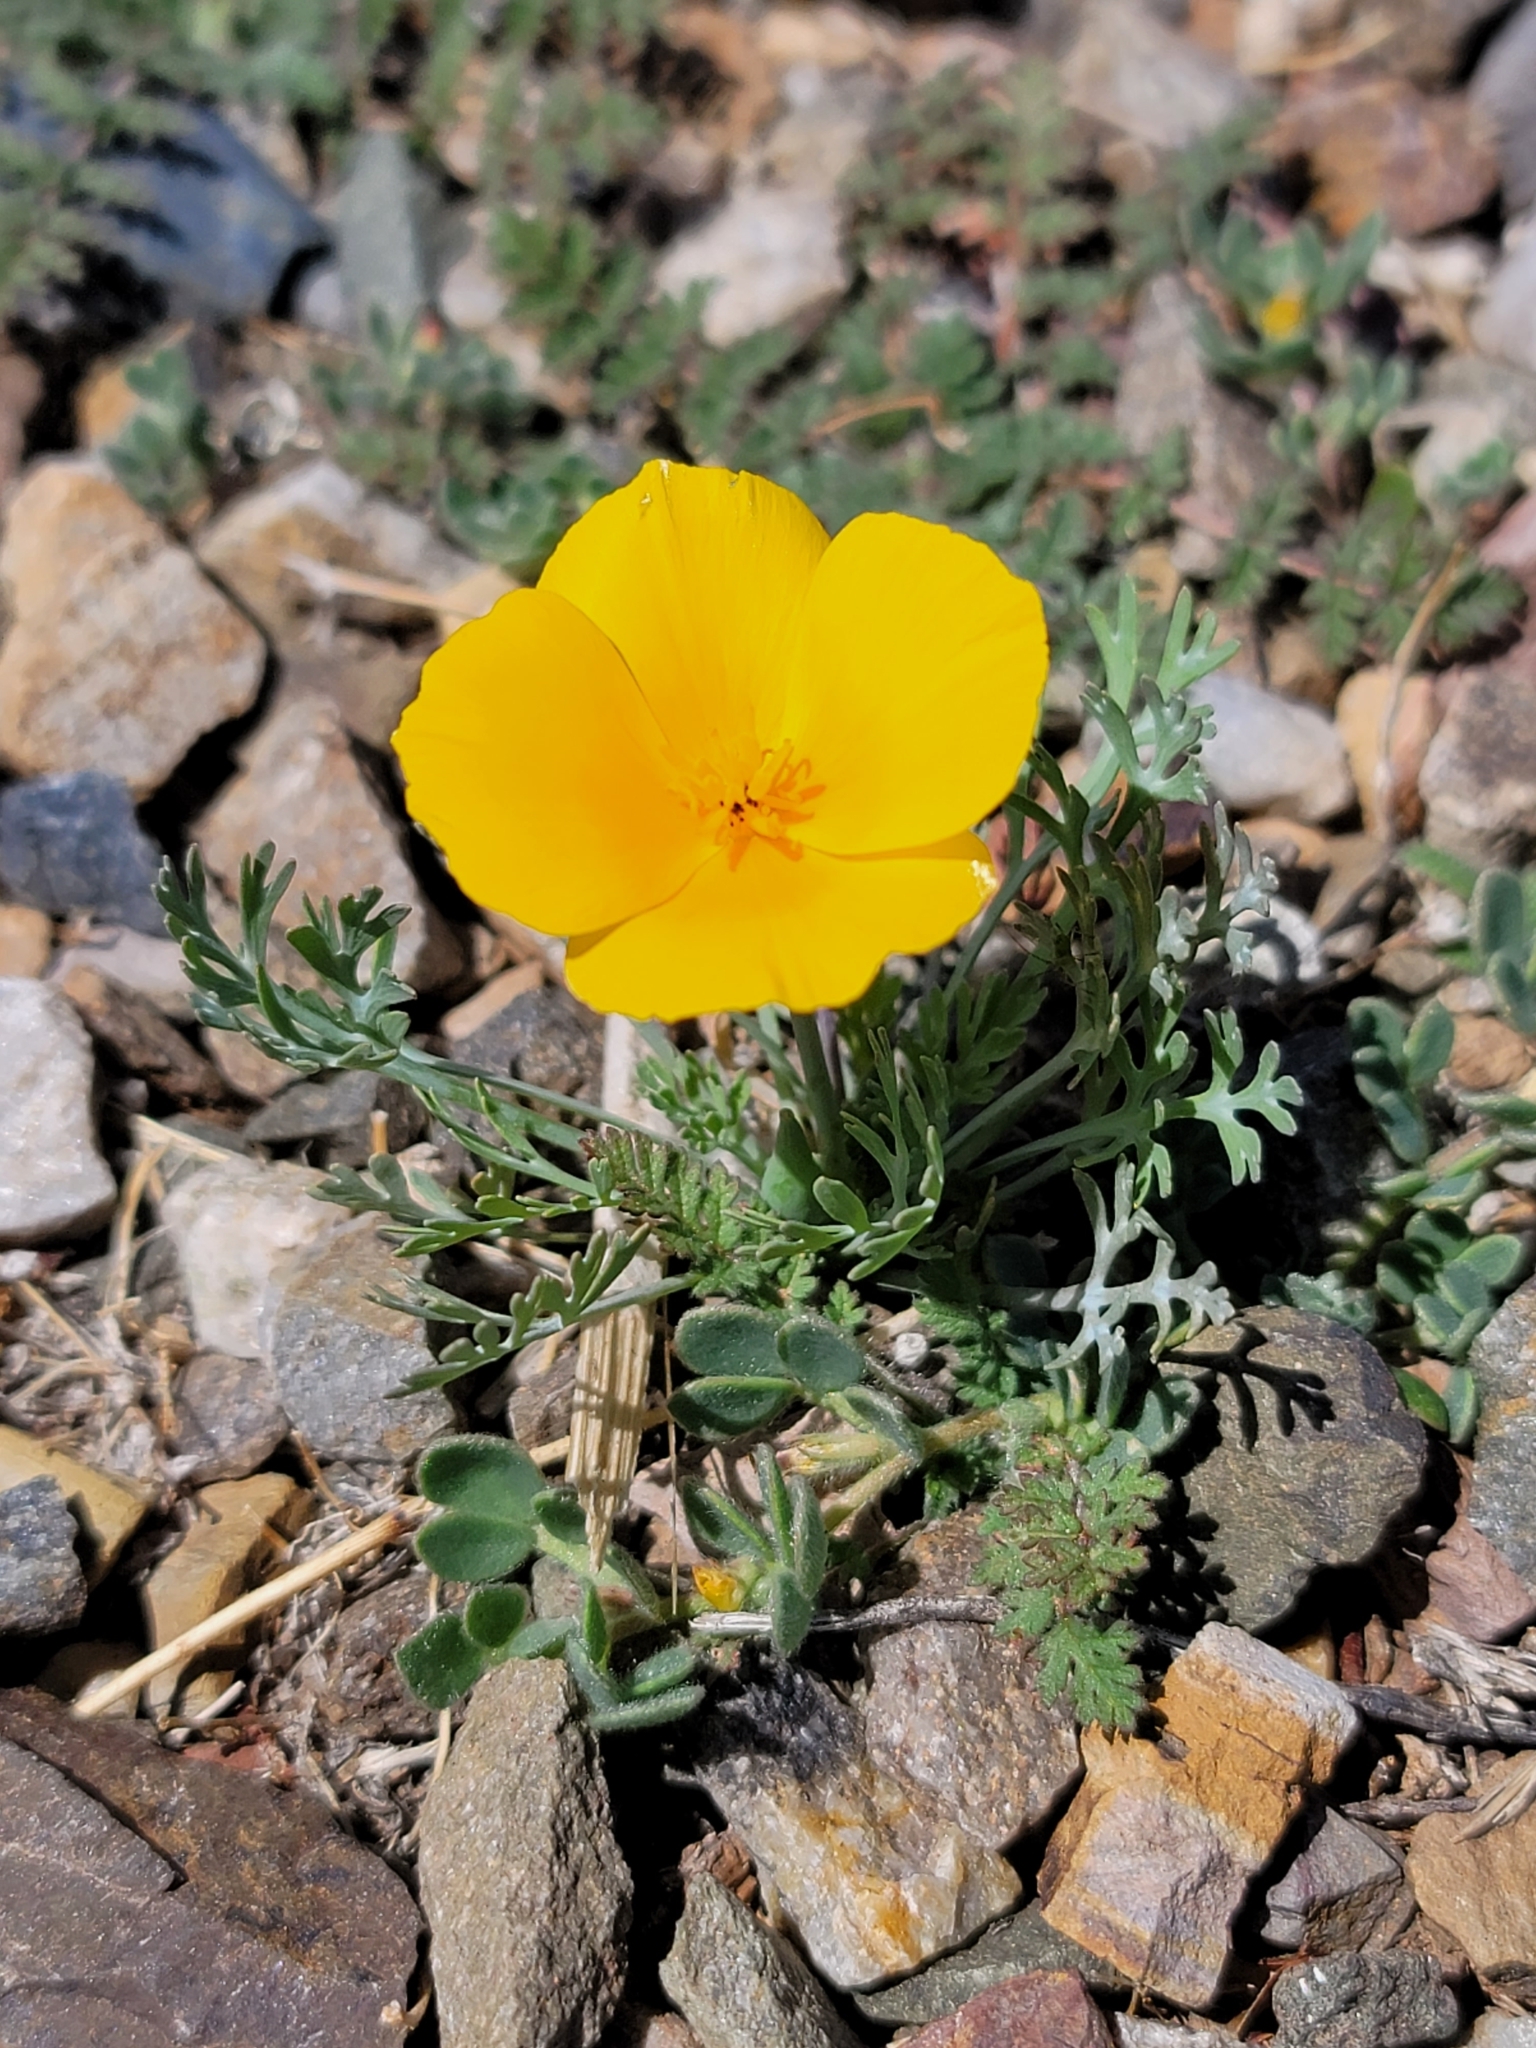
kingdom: Plantae
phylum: Tracheophyta
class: Magnoliopsida
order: Ranunculales
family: Papaveraceae
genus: Eschscholzia
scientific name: Eschscholzia californica
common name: California poppy
